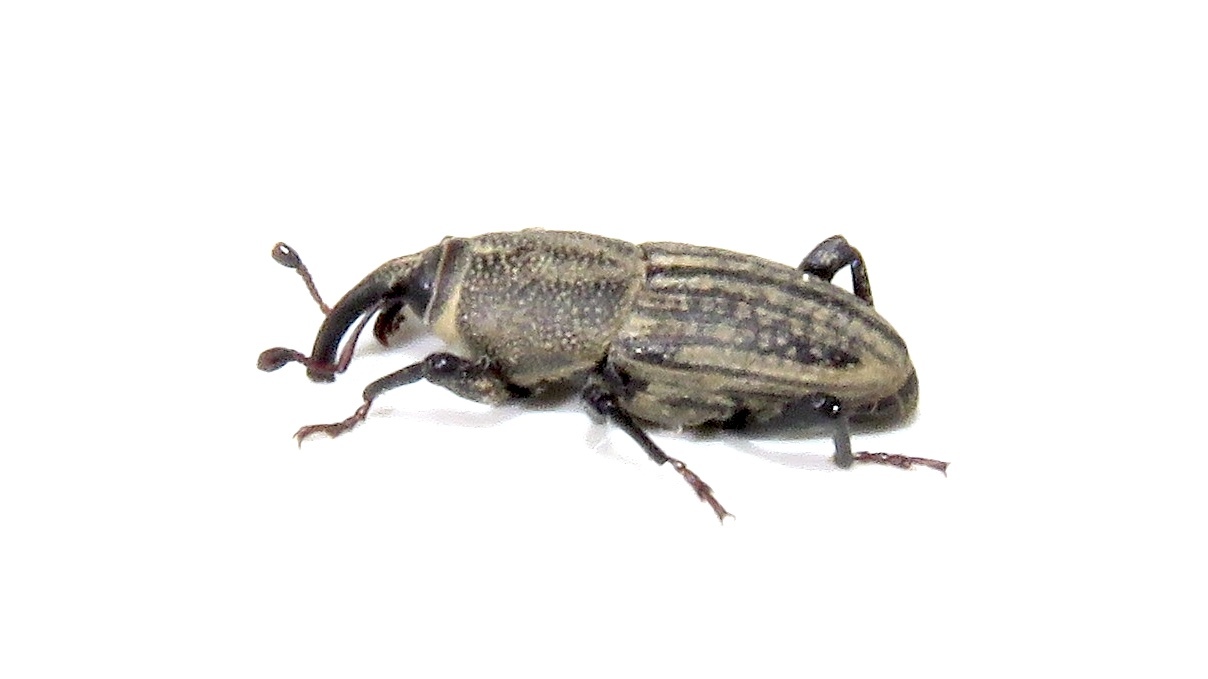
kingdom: Animalia
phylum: Arthropoda
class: Insecta
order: Coleoptera
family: Dryophthoridae
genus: Sphenophorus
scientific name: Sphenophorus interstitialis
